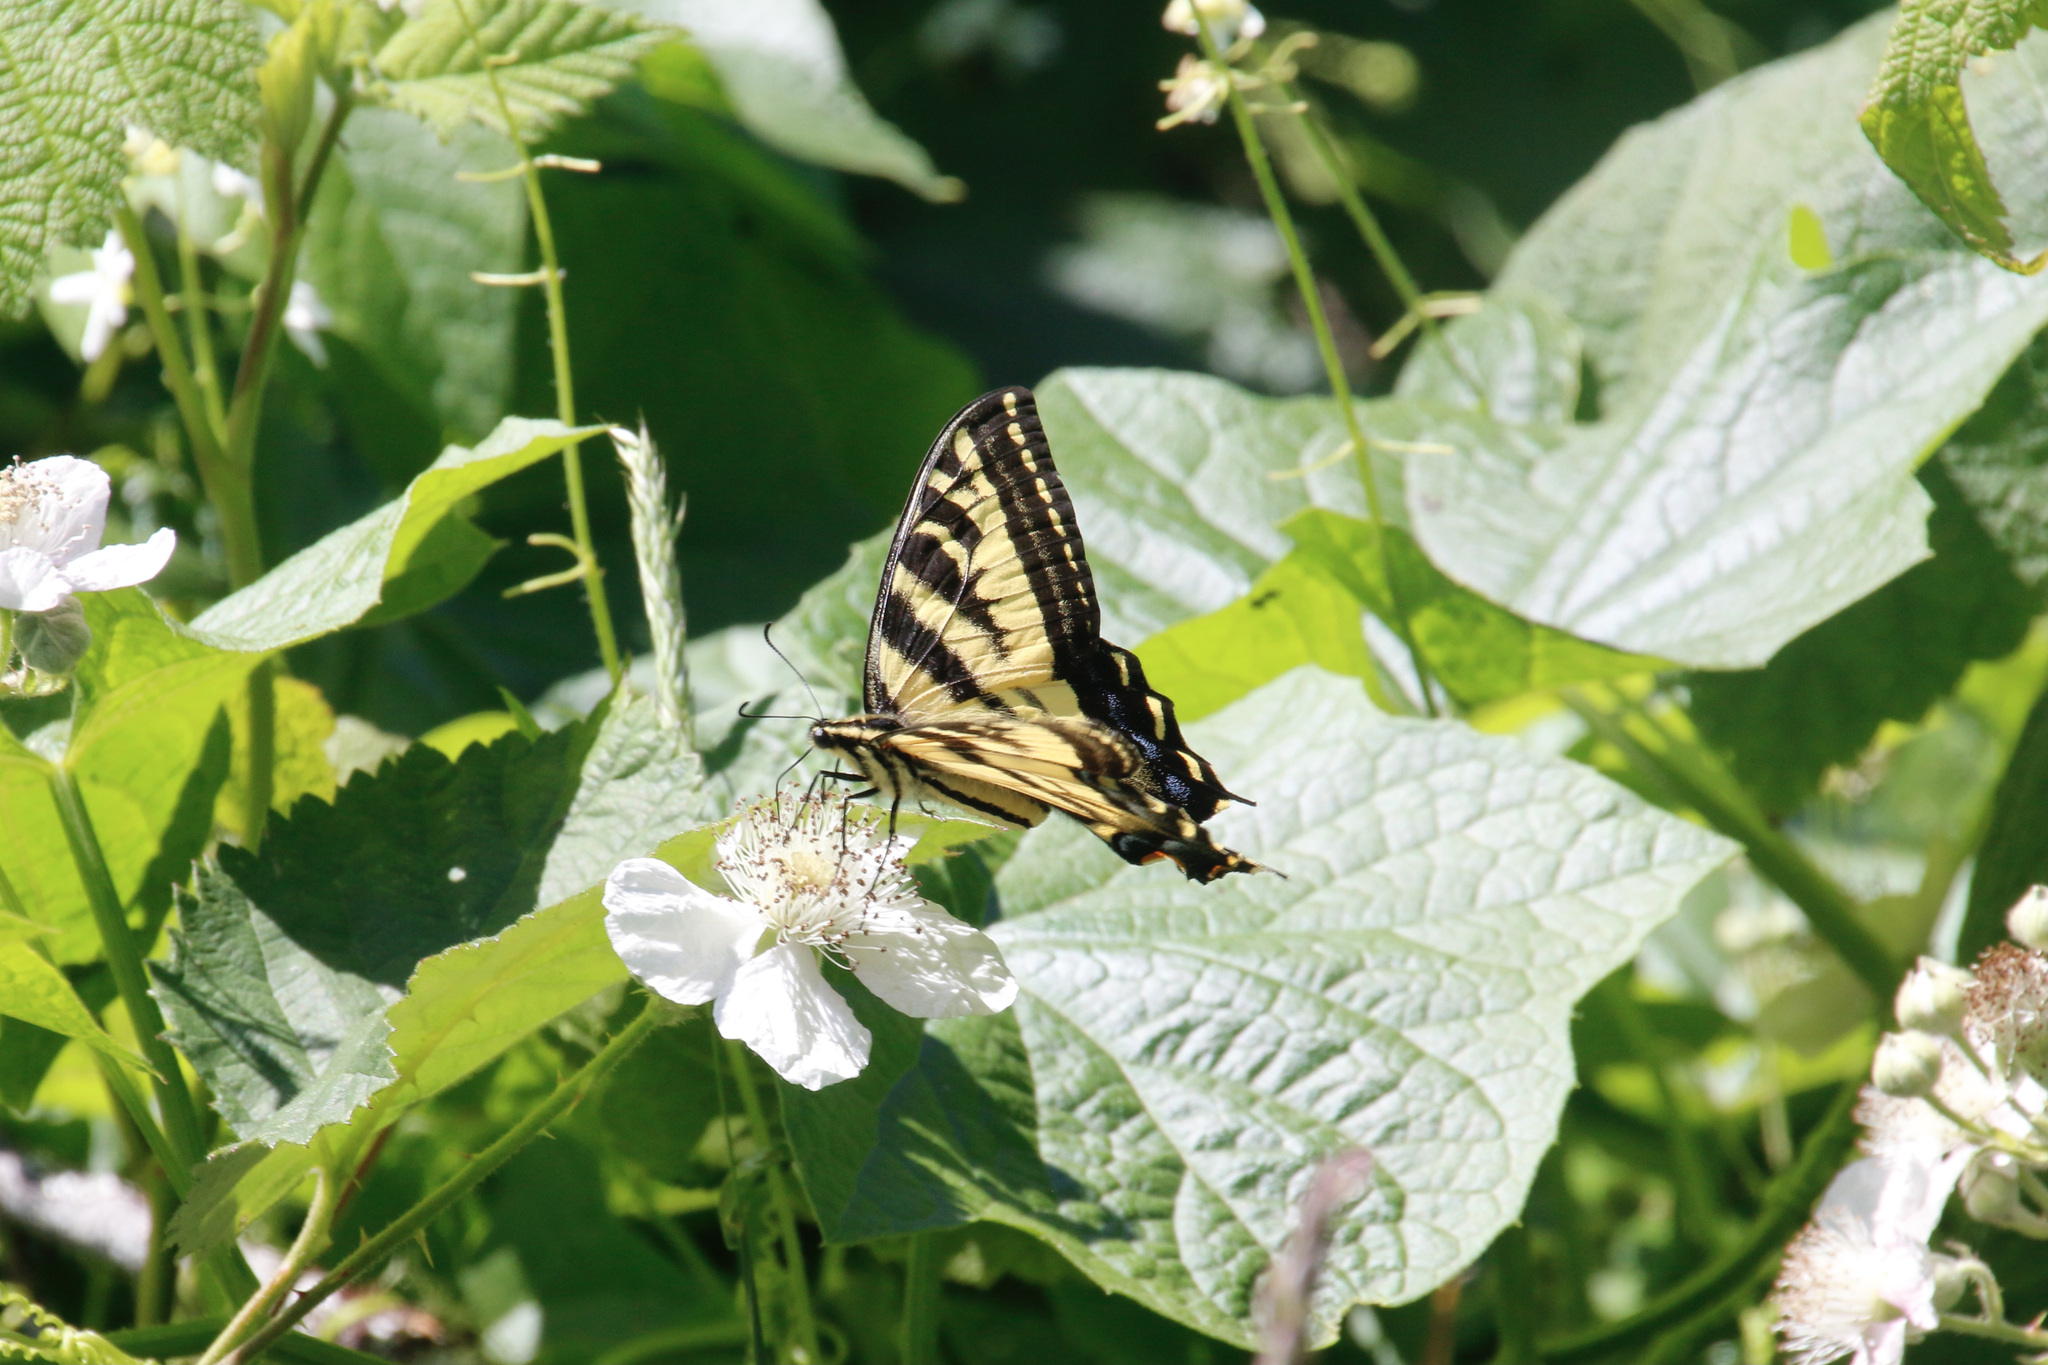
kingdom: Animalia
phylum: Arthropoda
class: Insecta
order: Lepidoptera
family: Papilionidae
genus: Papilio
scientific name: Papilio rutulus
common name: Western tiger swallowtail
